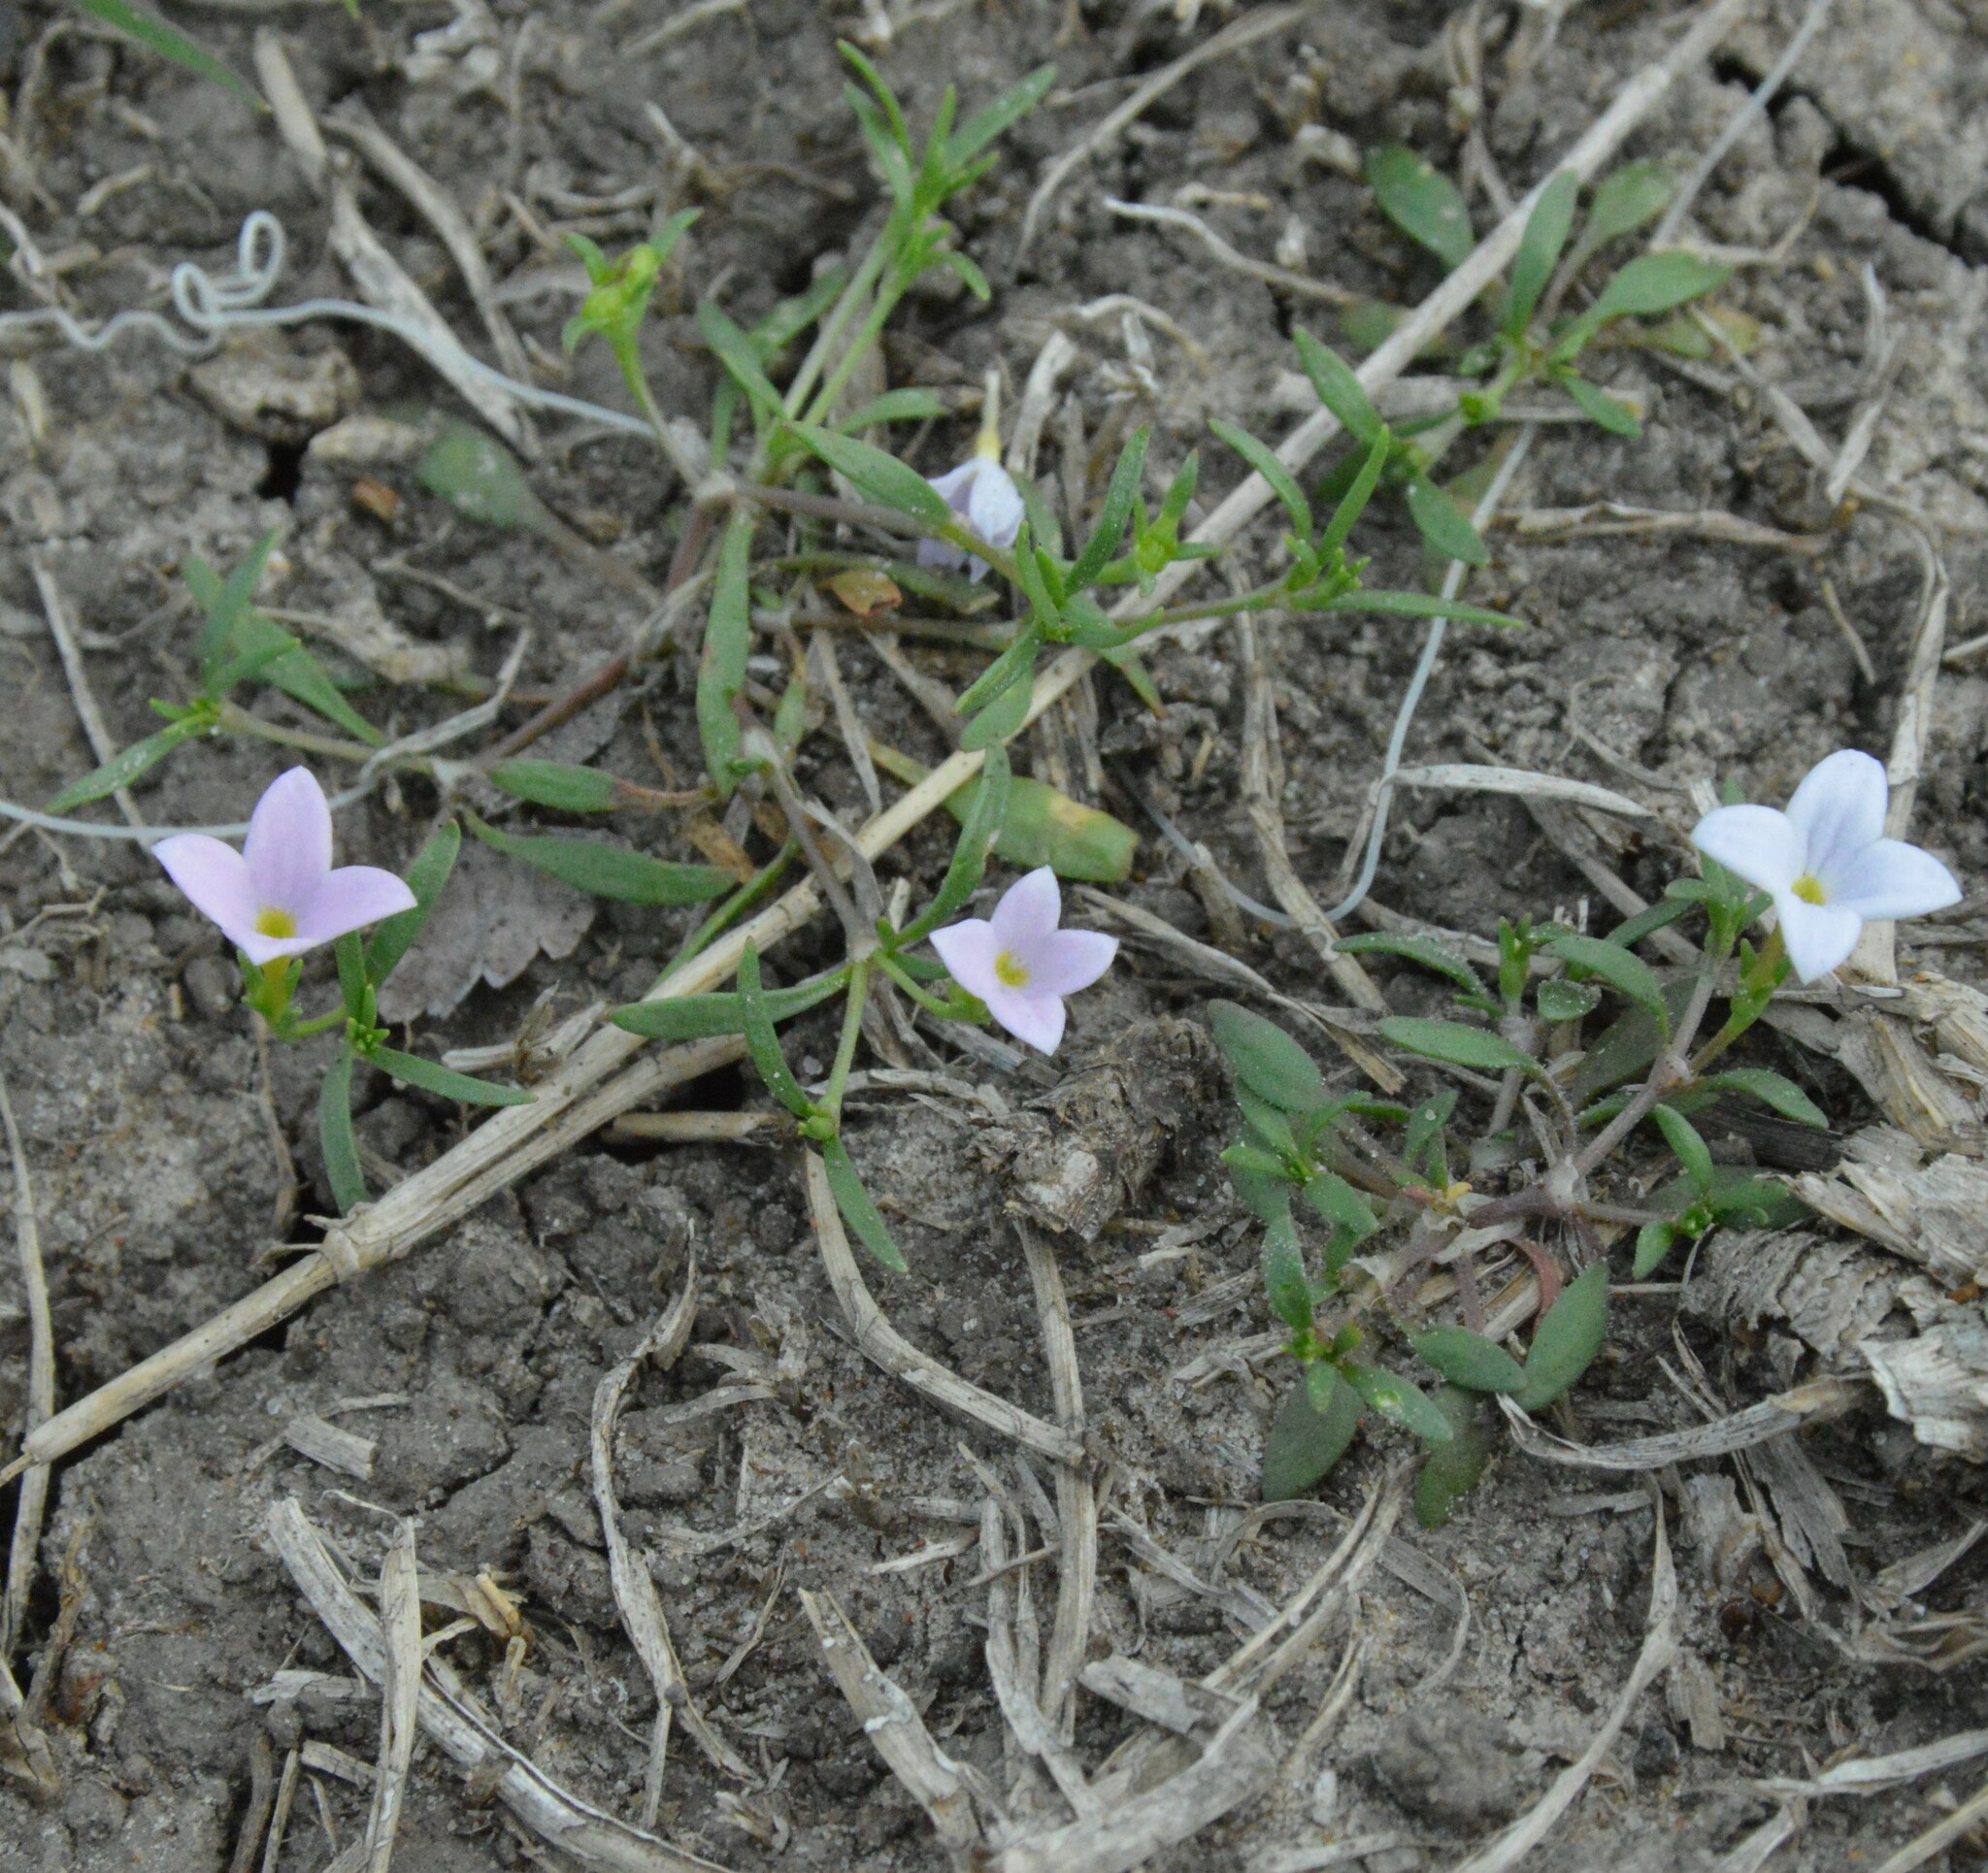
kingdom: Plantae
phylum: Tracheophyta
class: Magnoliopsida
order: Gentianales
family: Rubiaceae
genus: Houstonia
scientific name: Houstonia rosea
